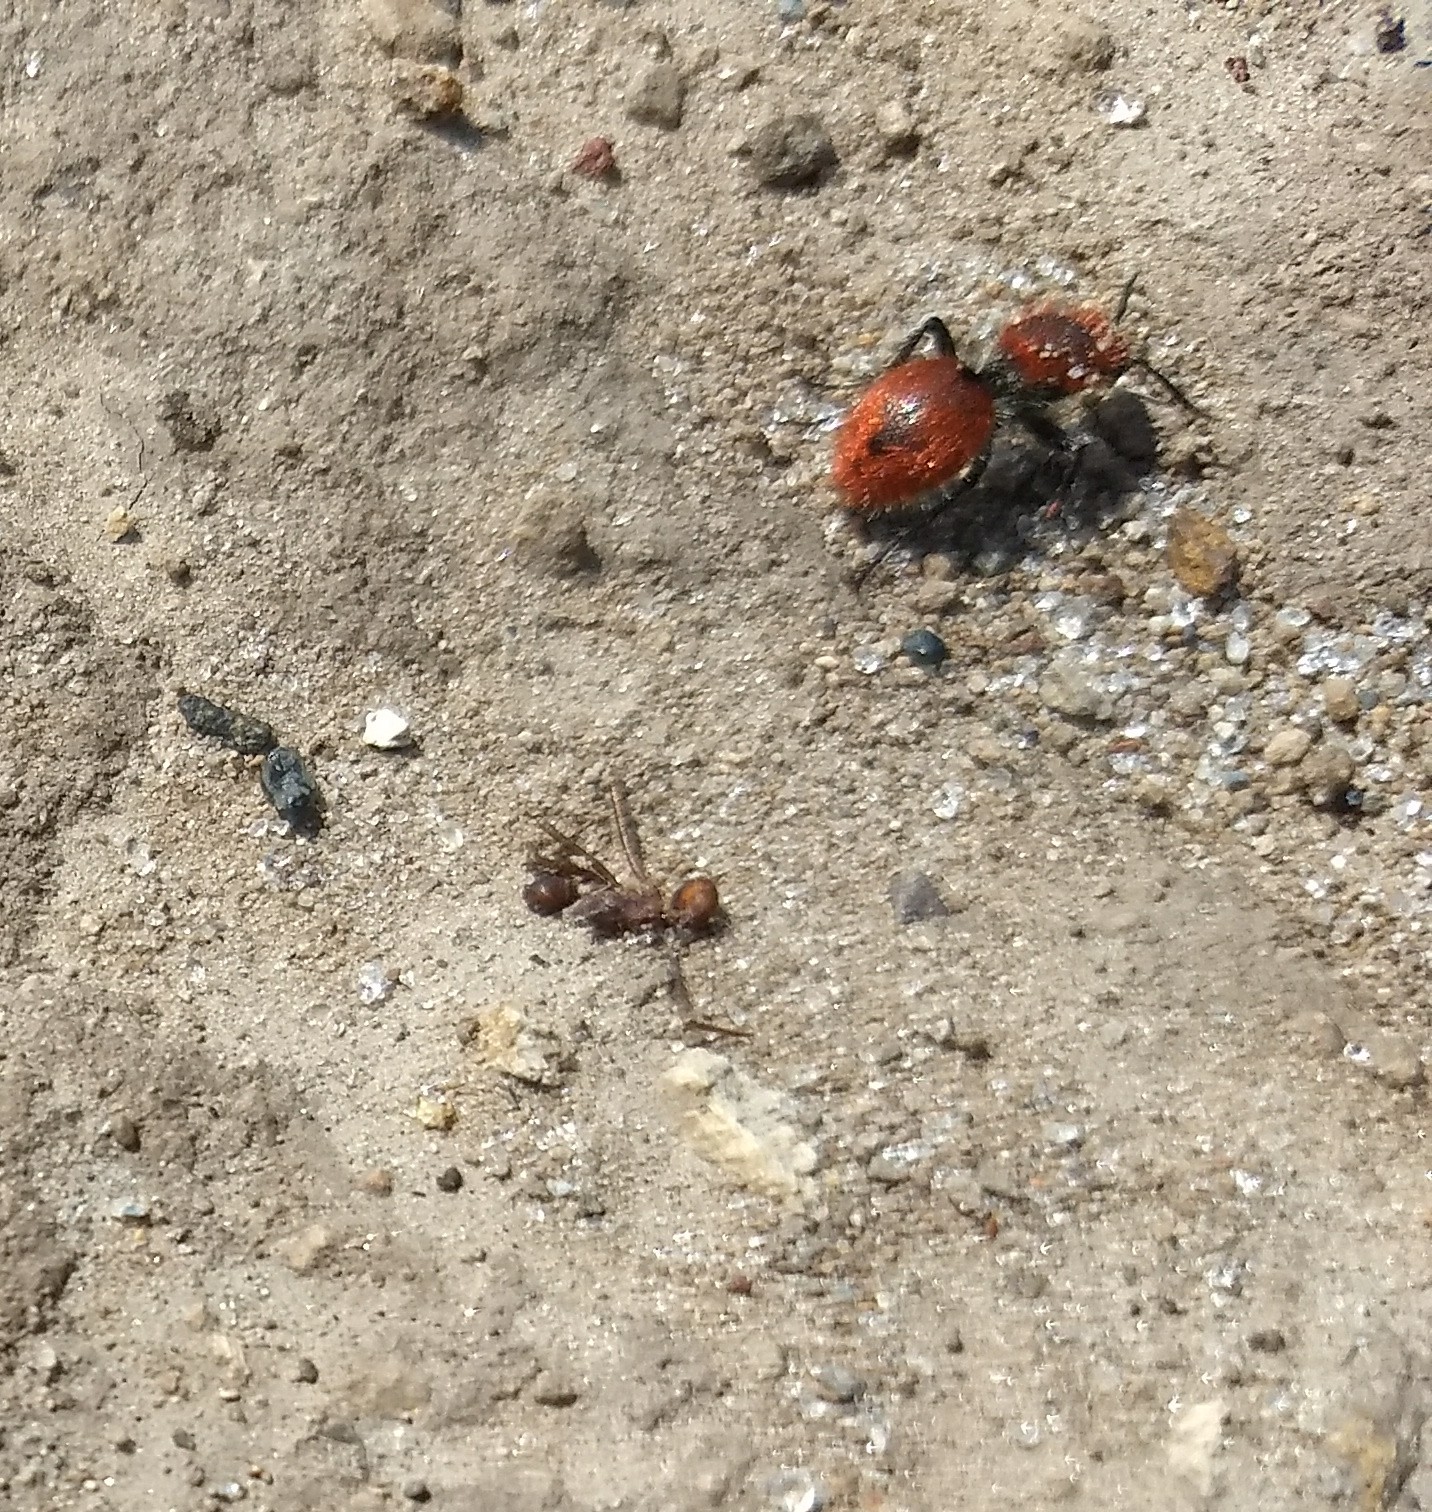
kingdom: Animalia
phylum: Arthropoda
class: Insecta
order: Hymenoptera
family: Mutillidae
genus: Dasymutilla
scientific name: Dasymutilla
